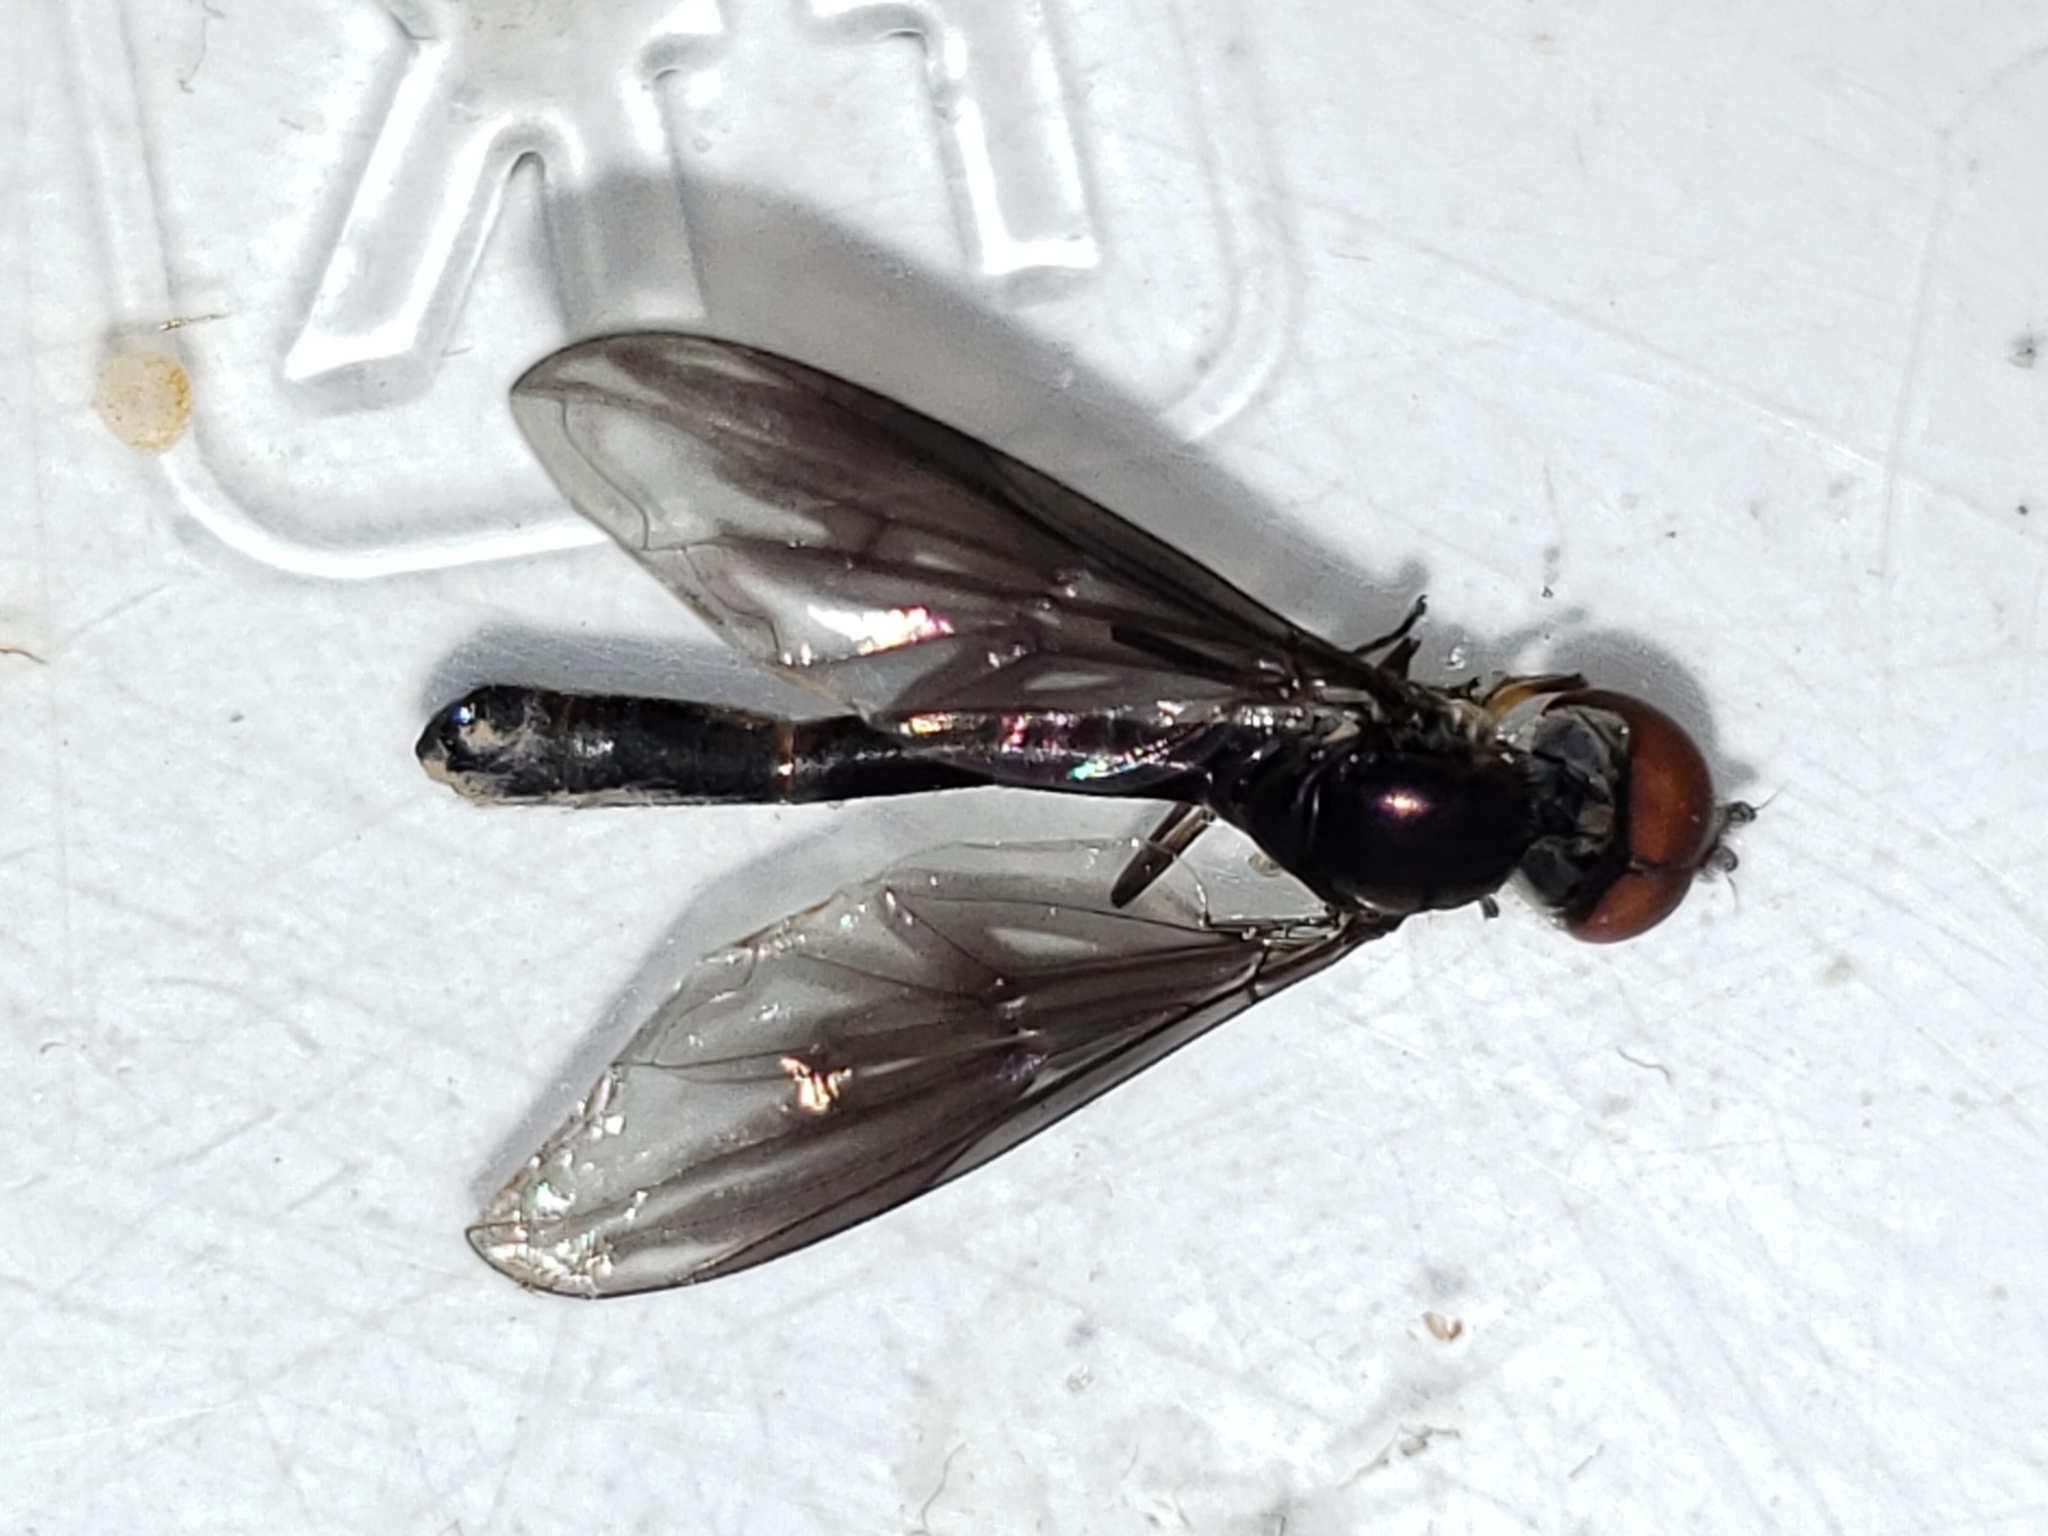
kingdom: Animalia
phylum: Arthropoda
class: Insecta
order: Diptera
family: Syrphidae
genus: Ocyptamus
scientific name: Ocyptamus fuscipennis
